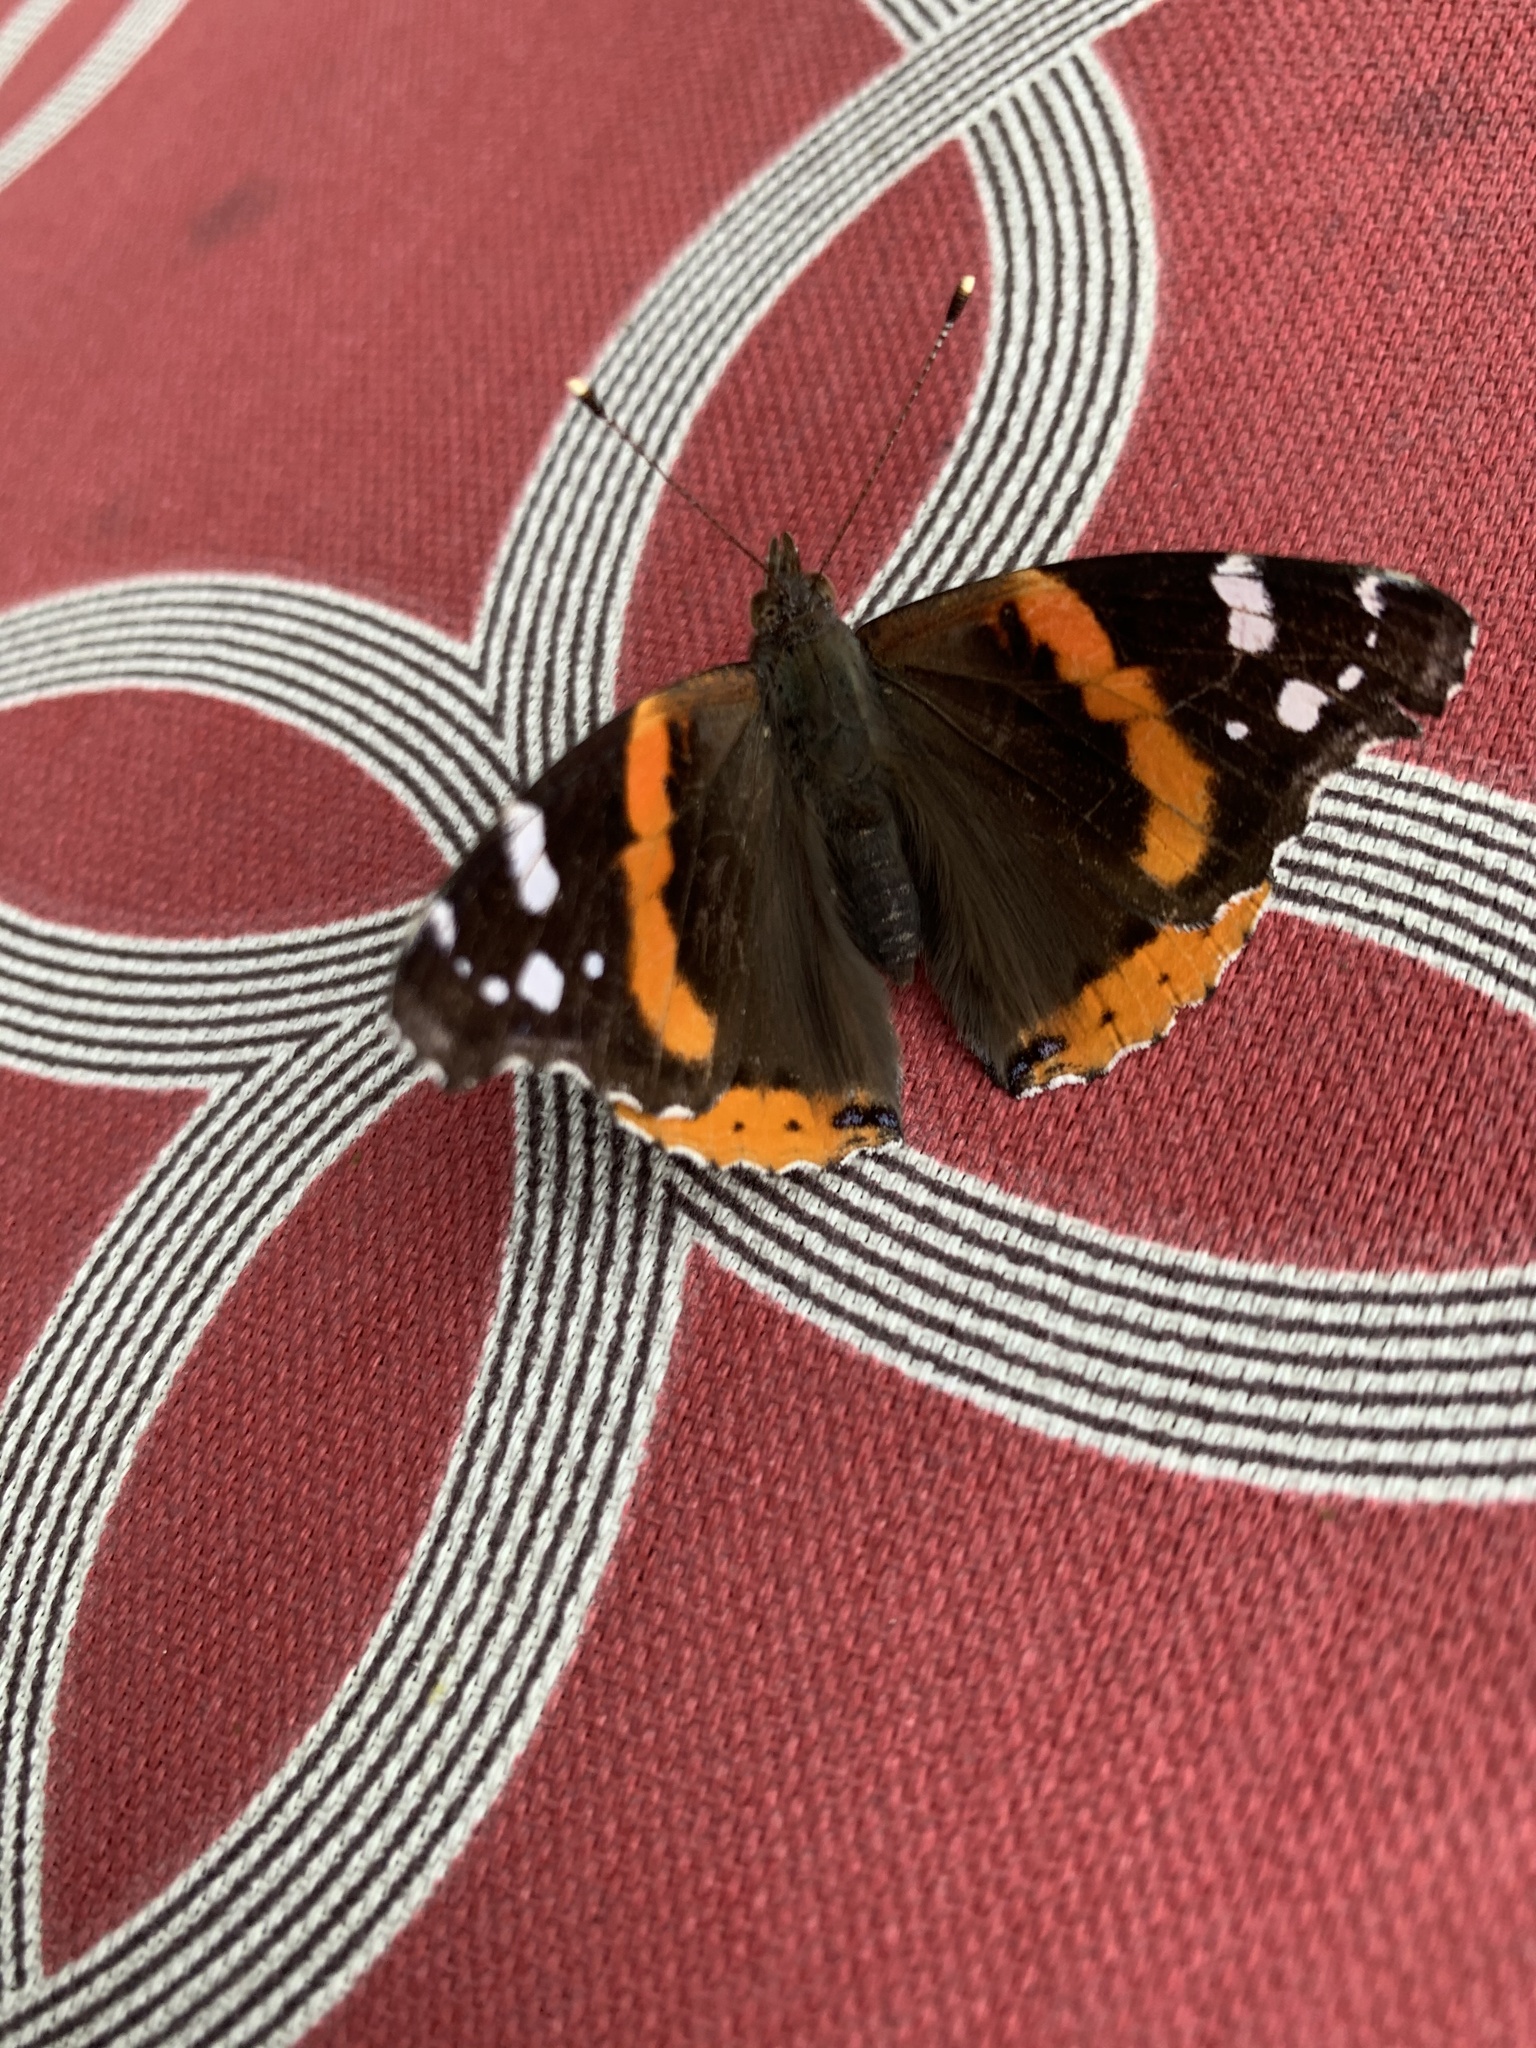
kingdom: Animalia
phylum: Arthropoda
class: Insecta
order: Lepidoptera
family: Nymphalidae
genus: Vanessa
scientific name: Vanessa atalanta
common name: Red admiral
